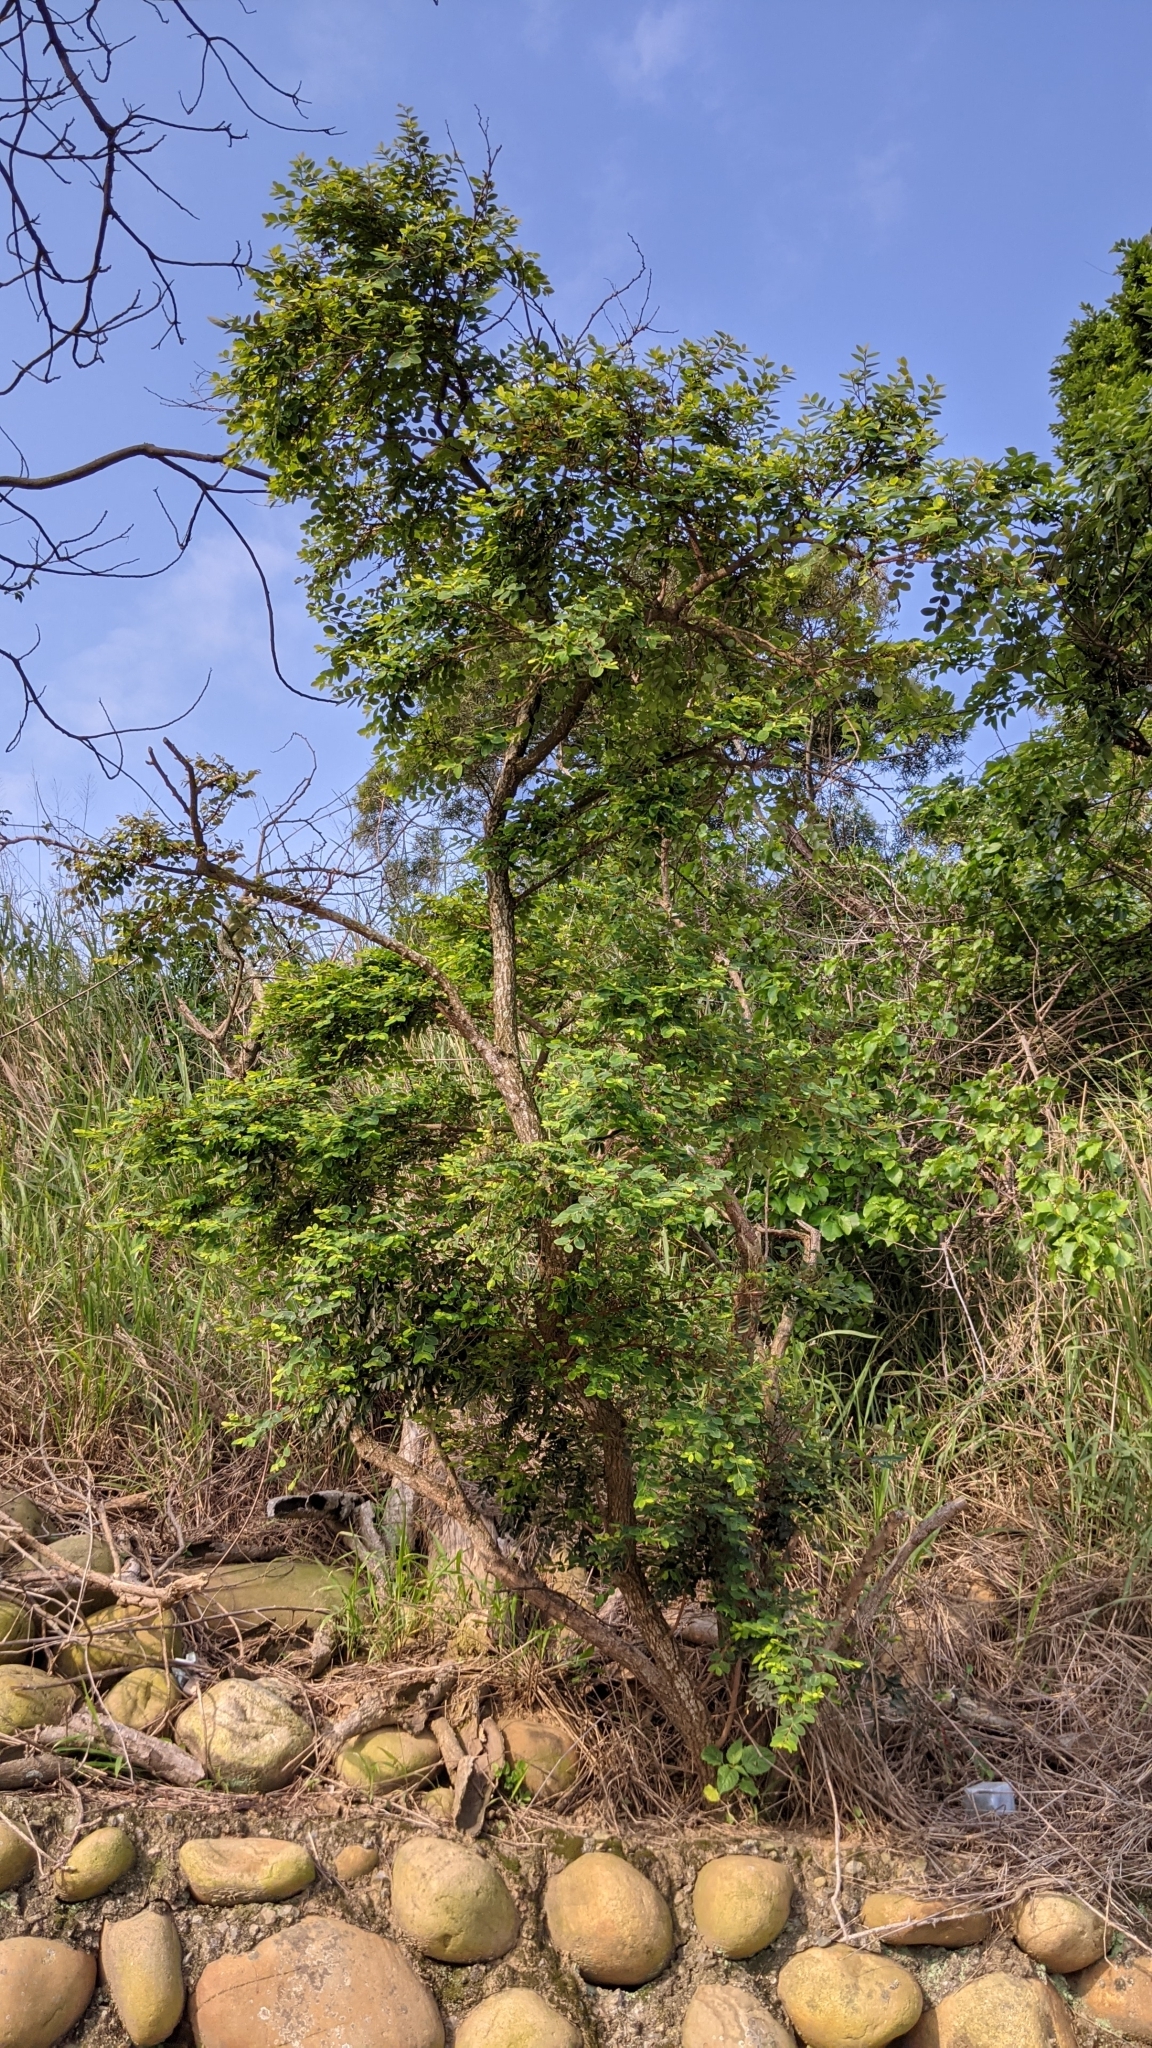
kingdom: Plantae
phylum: Tracheophyta
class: Magnoliopsida
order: Malpighiales
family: Phyllanthaceae
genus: Breynia
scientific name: Breynia vitis-idaea
